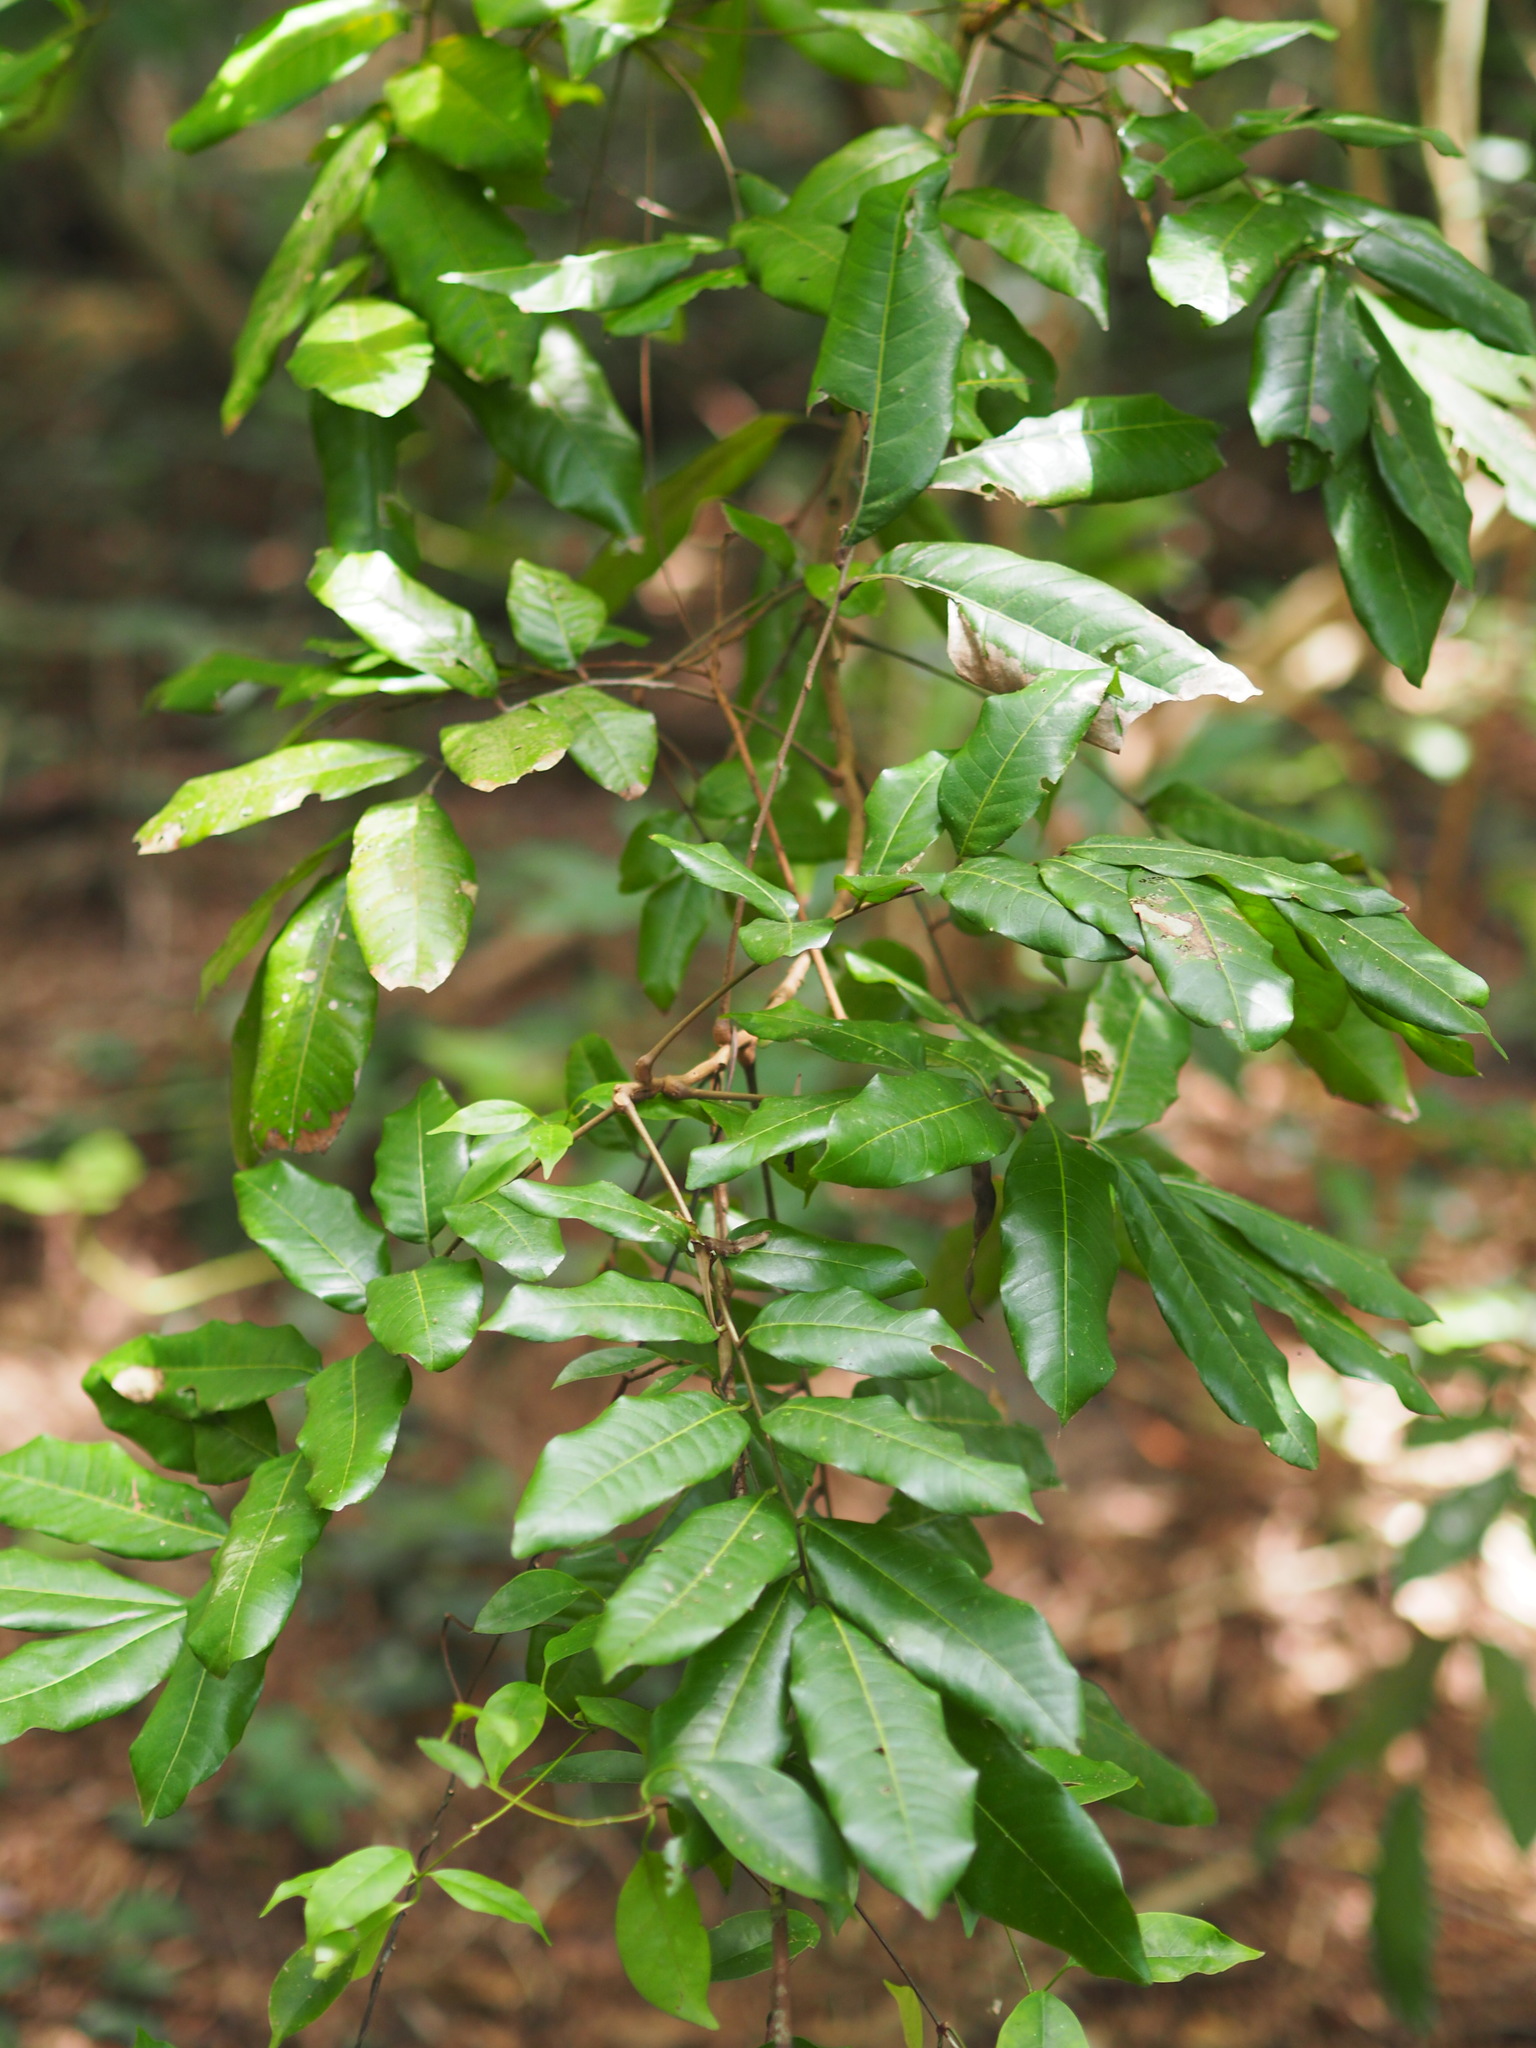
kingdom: Plantae
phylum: Tracheophyta
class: Magnoliopsida
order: Sapindales
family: Sapindaceae
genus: Dimocarpus
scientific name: Dimocarpus longan
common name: Longan
